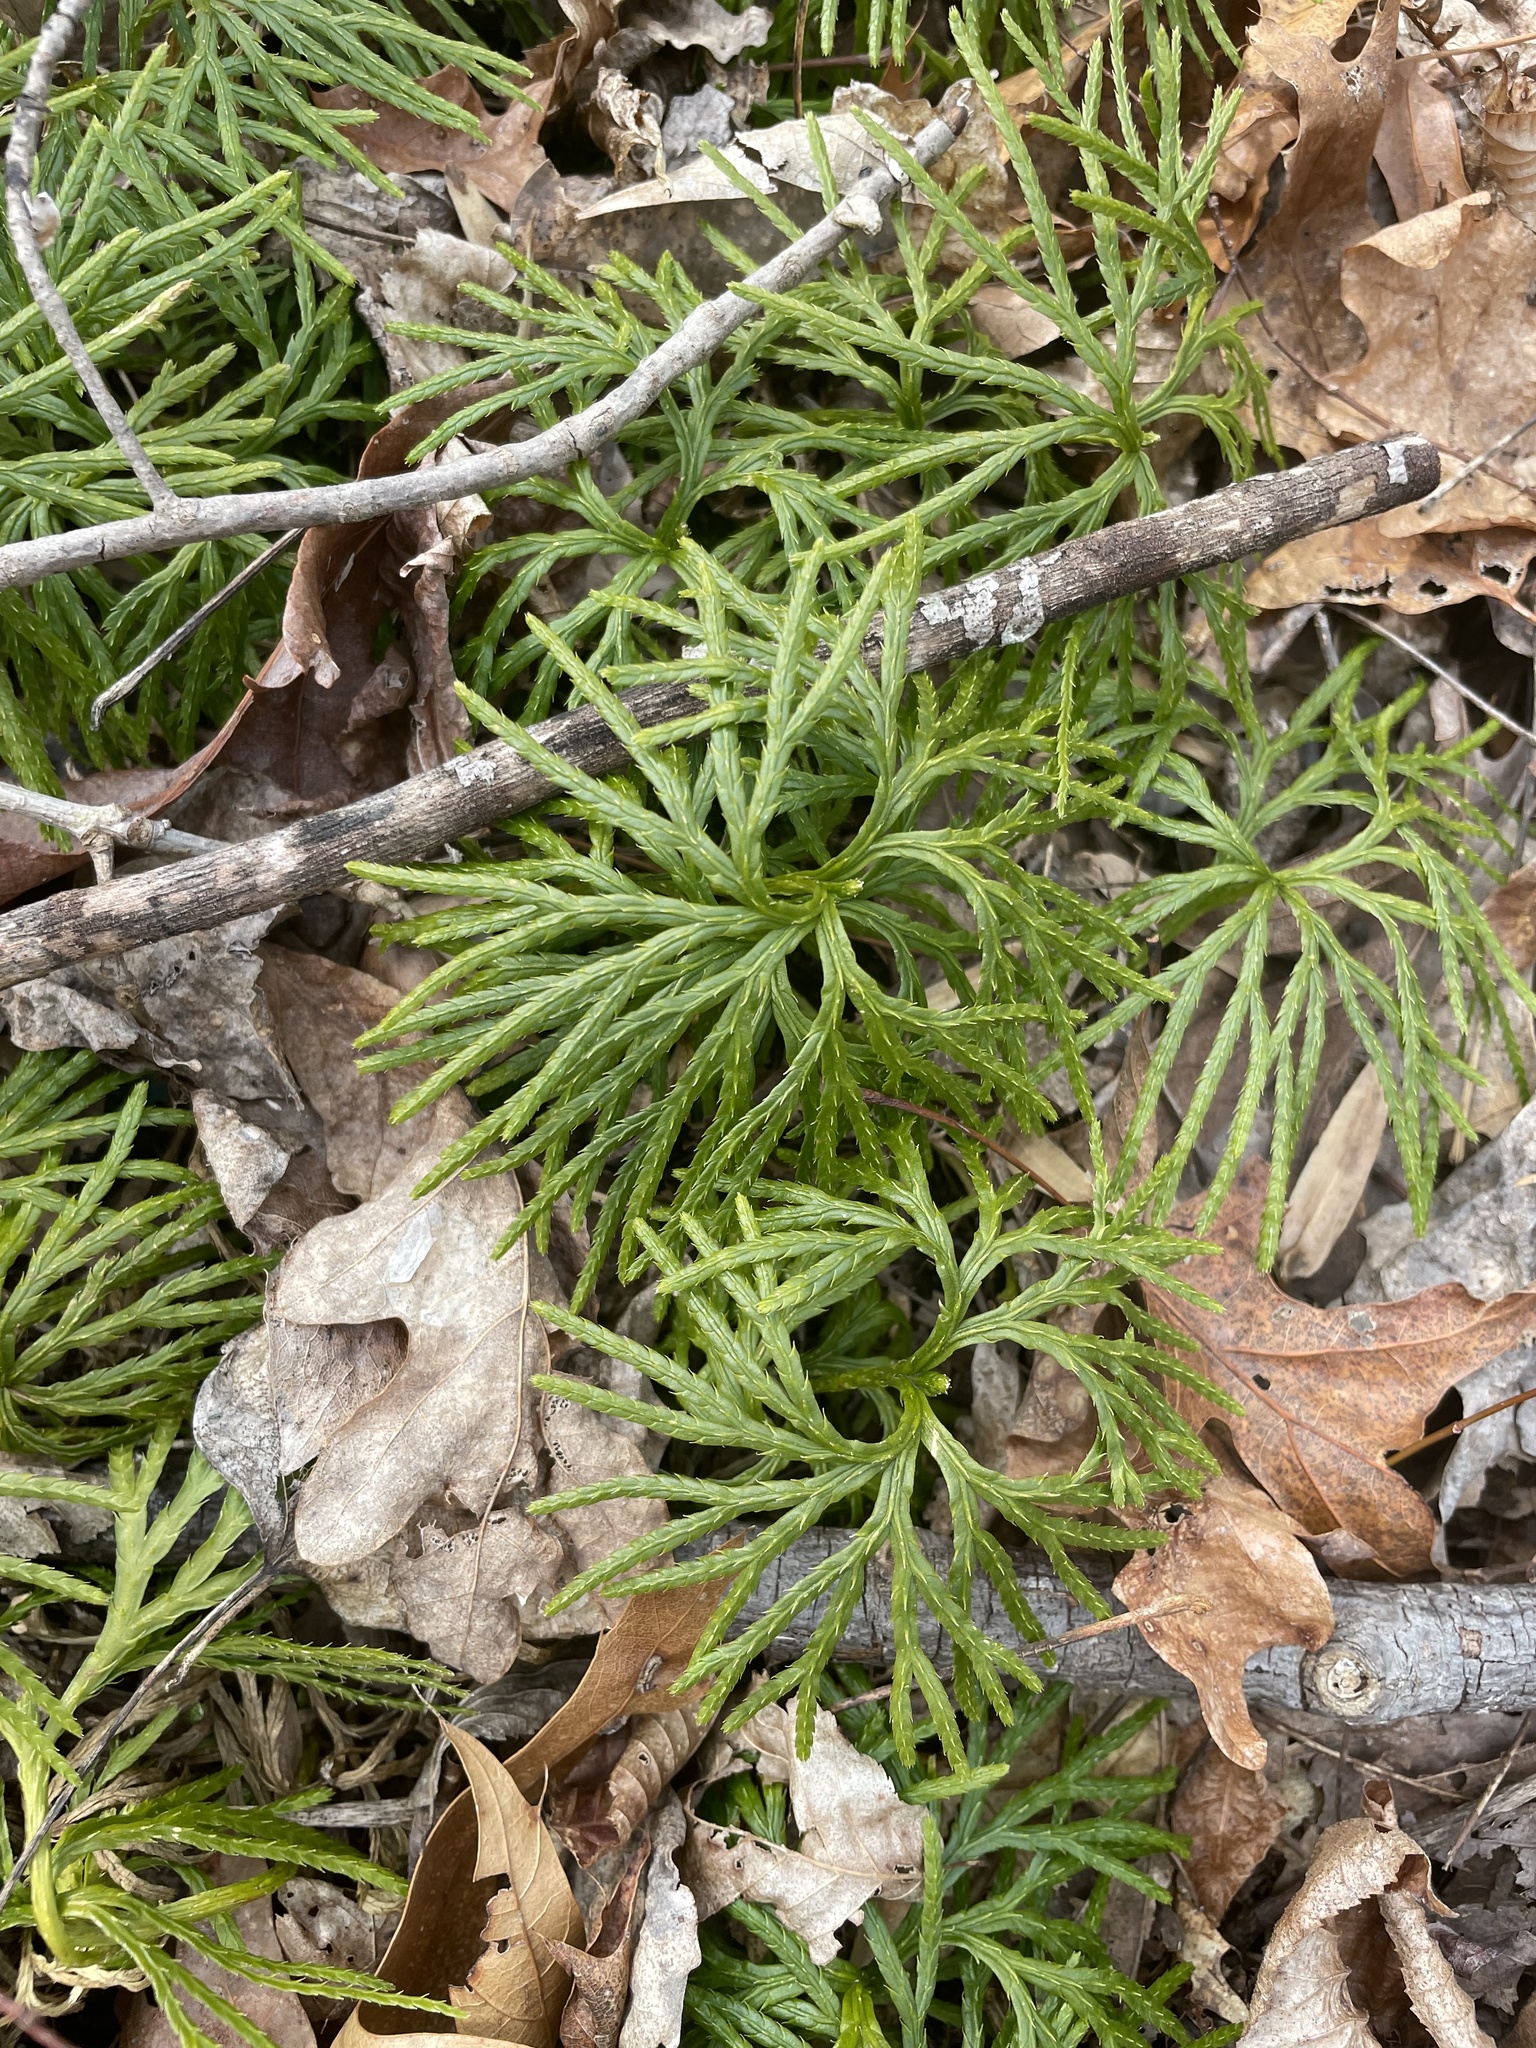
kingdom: Plantae
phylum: Tracheophyta
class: Lycopodiopsida
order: Lycopodiales
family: Lycopodiaceae
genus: Diphasiastrum
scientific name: Diphasiastrum digitatum
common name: Southern running-pine
